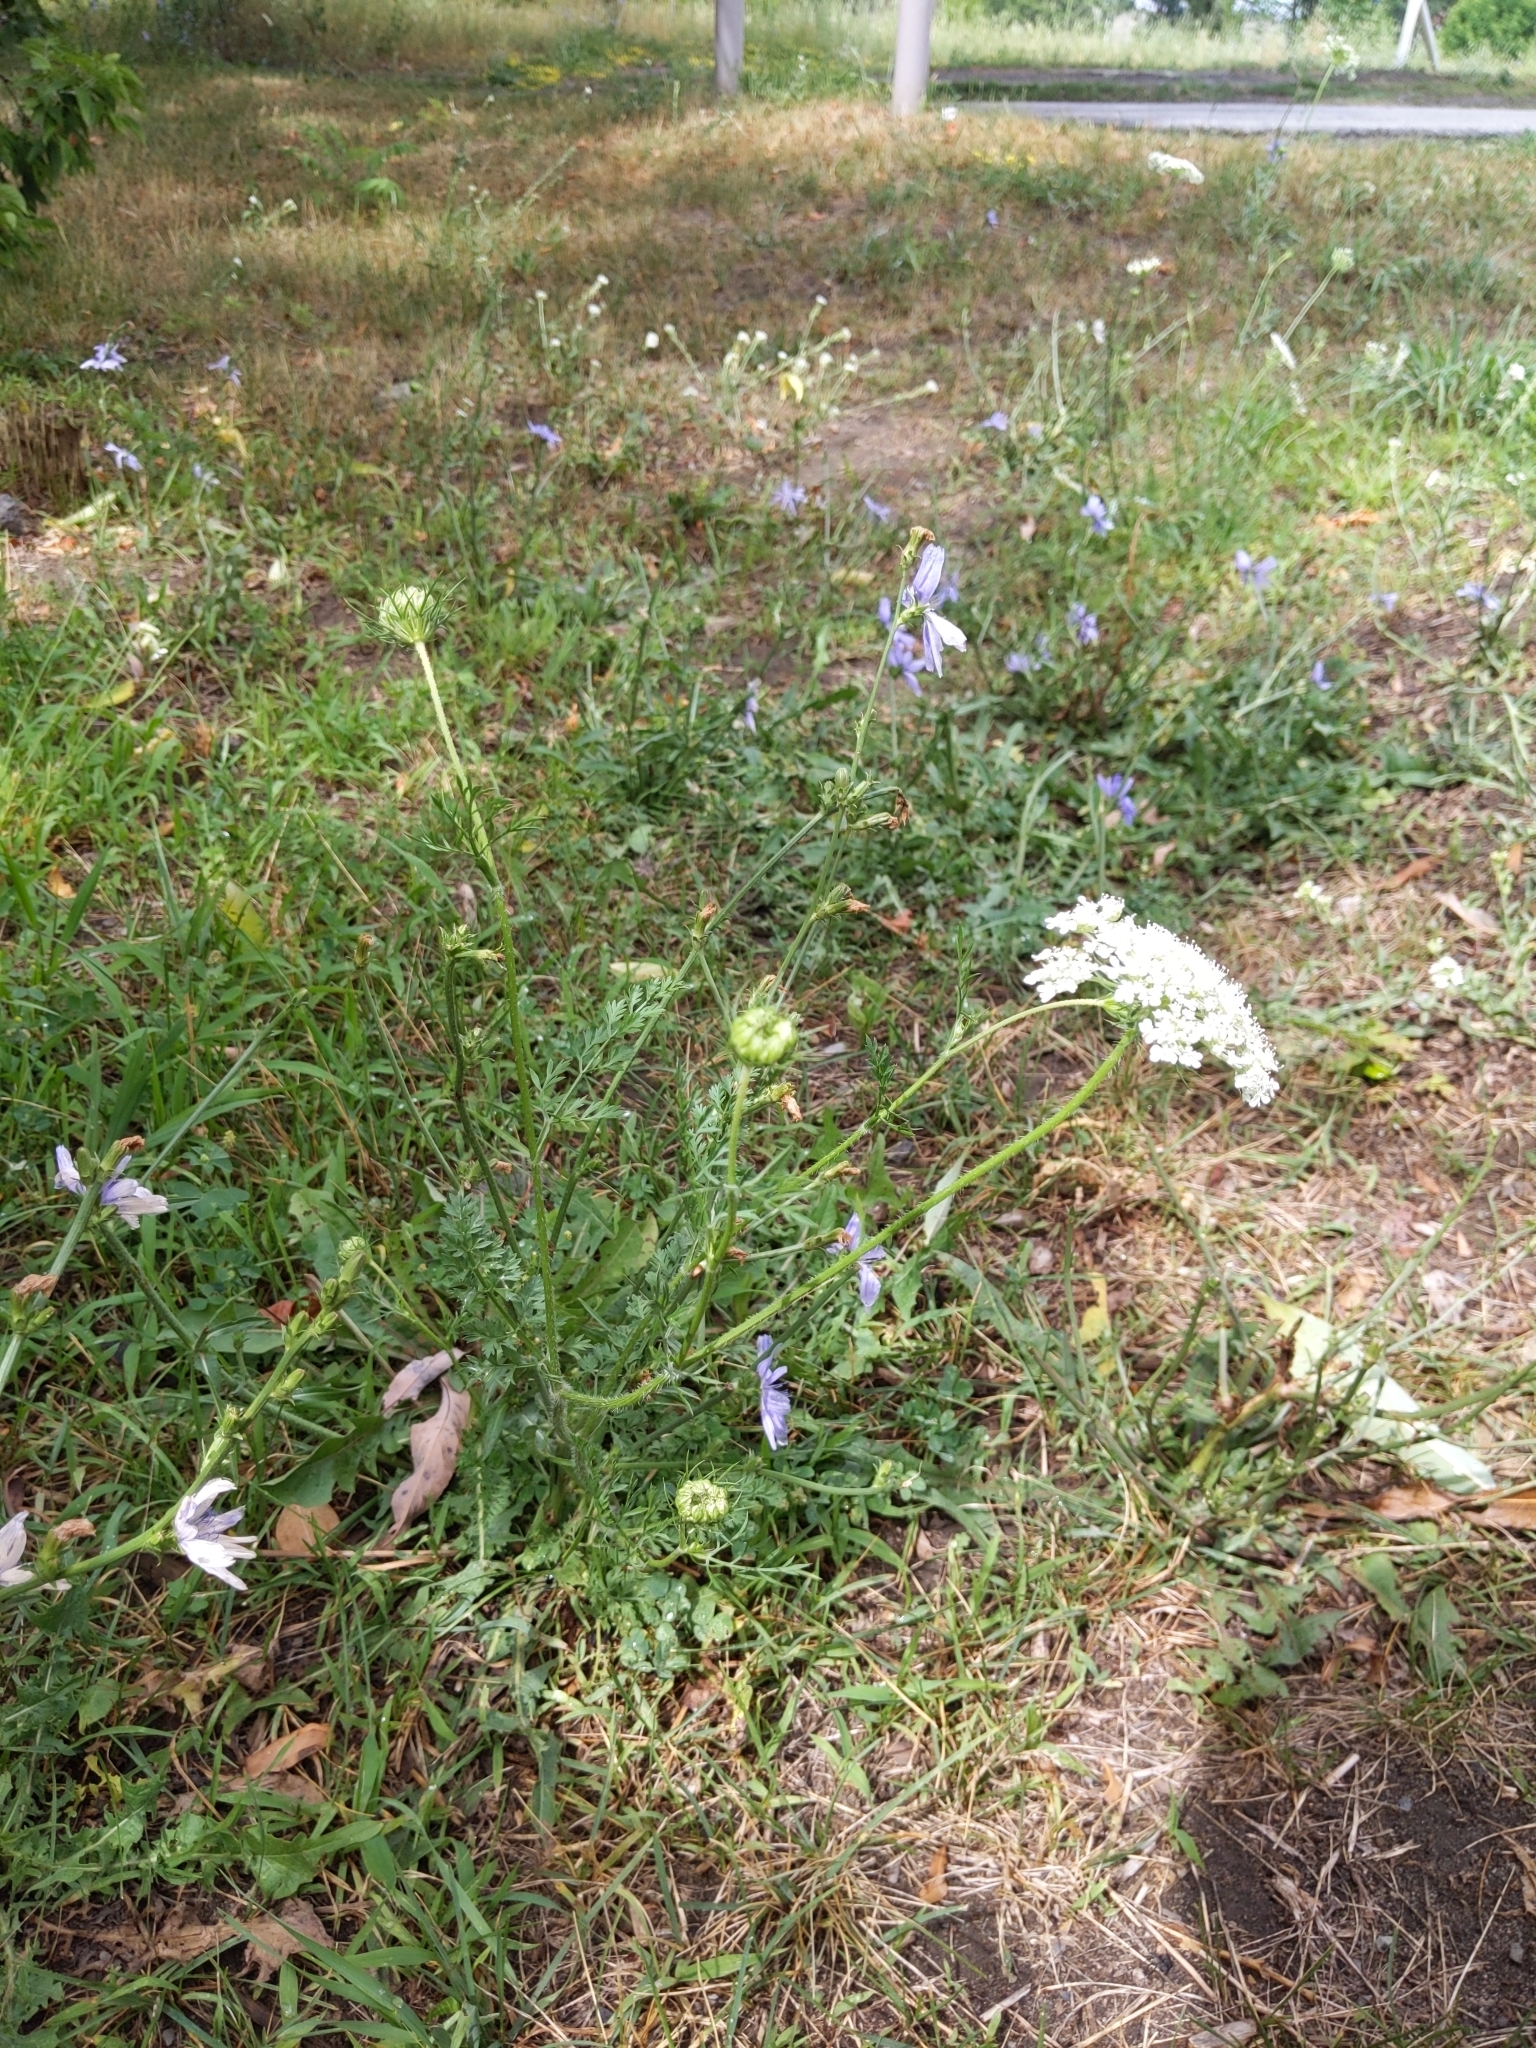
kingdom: Plantae
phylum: Tracheophyta
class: Magnoliopsida
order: Apiales
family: Apiaceae
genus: Daucus
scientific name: Daucus carota
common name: Wild carrot
